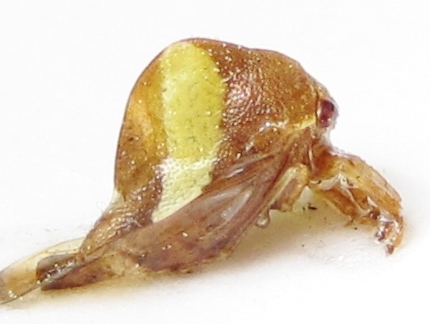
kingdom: Animalia
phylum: Arthropoda
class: Insecta
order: Hemiptera
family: Membracidae
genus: Smilia
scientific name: Smilia fasciata
